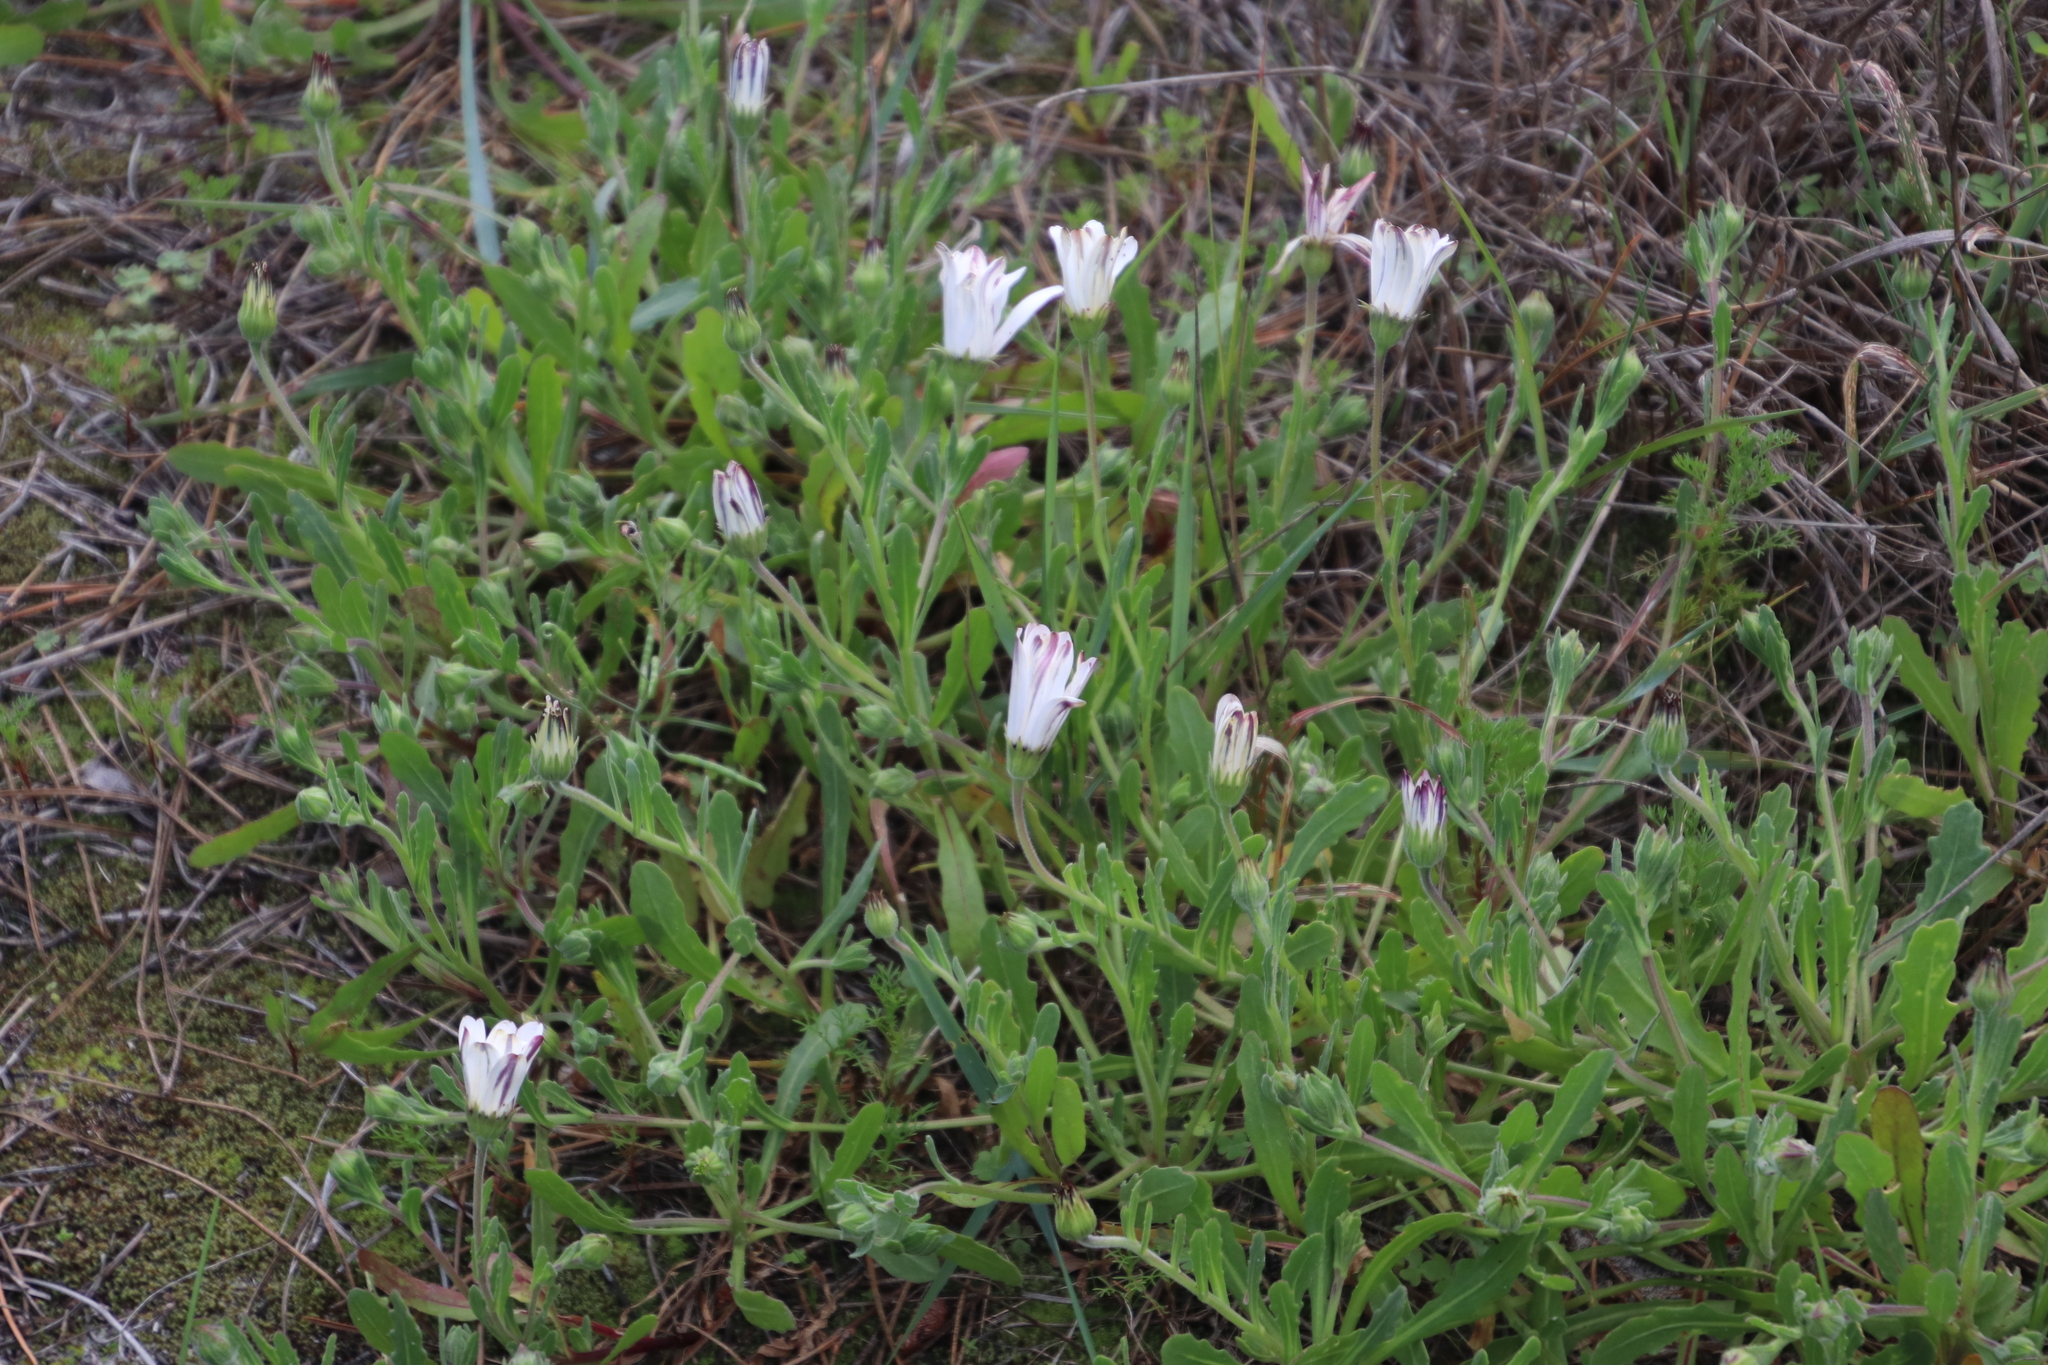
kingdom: Plantae
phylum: Tracheophyta
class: Magnoliopsida
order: Asterales
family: Asteraceae
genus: Dimorphotheca
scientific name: Dimorphotheca pluvialis
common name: Weather prophet
